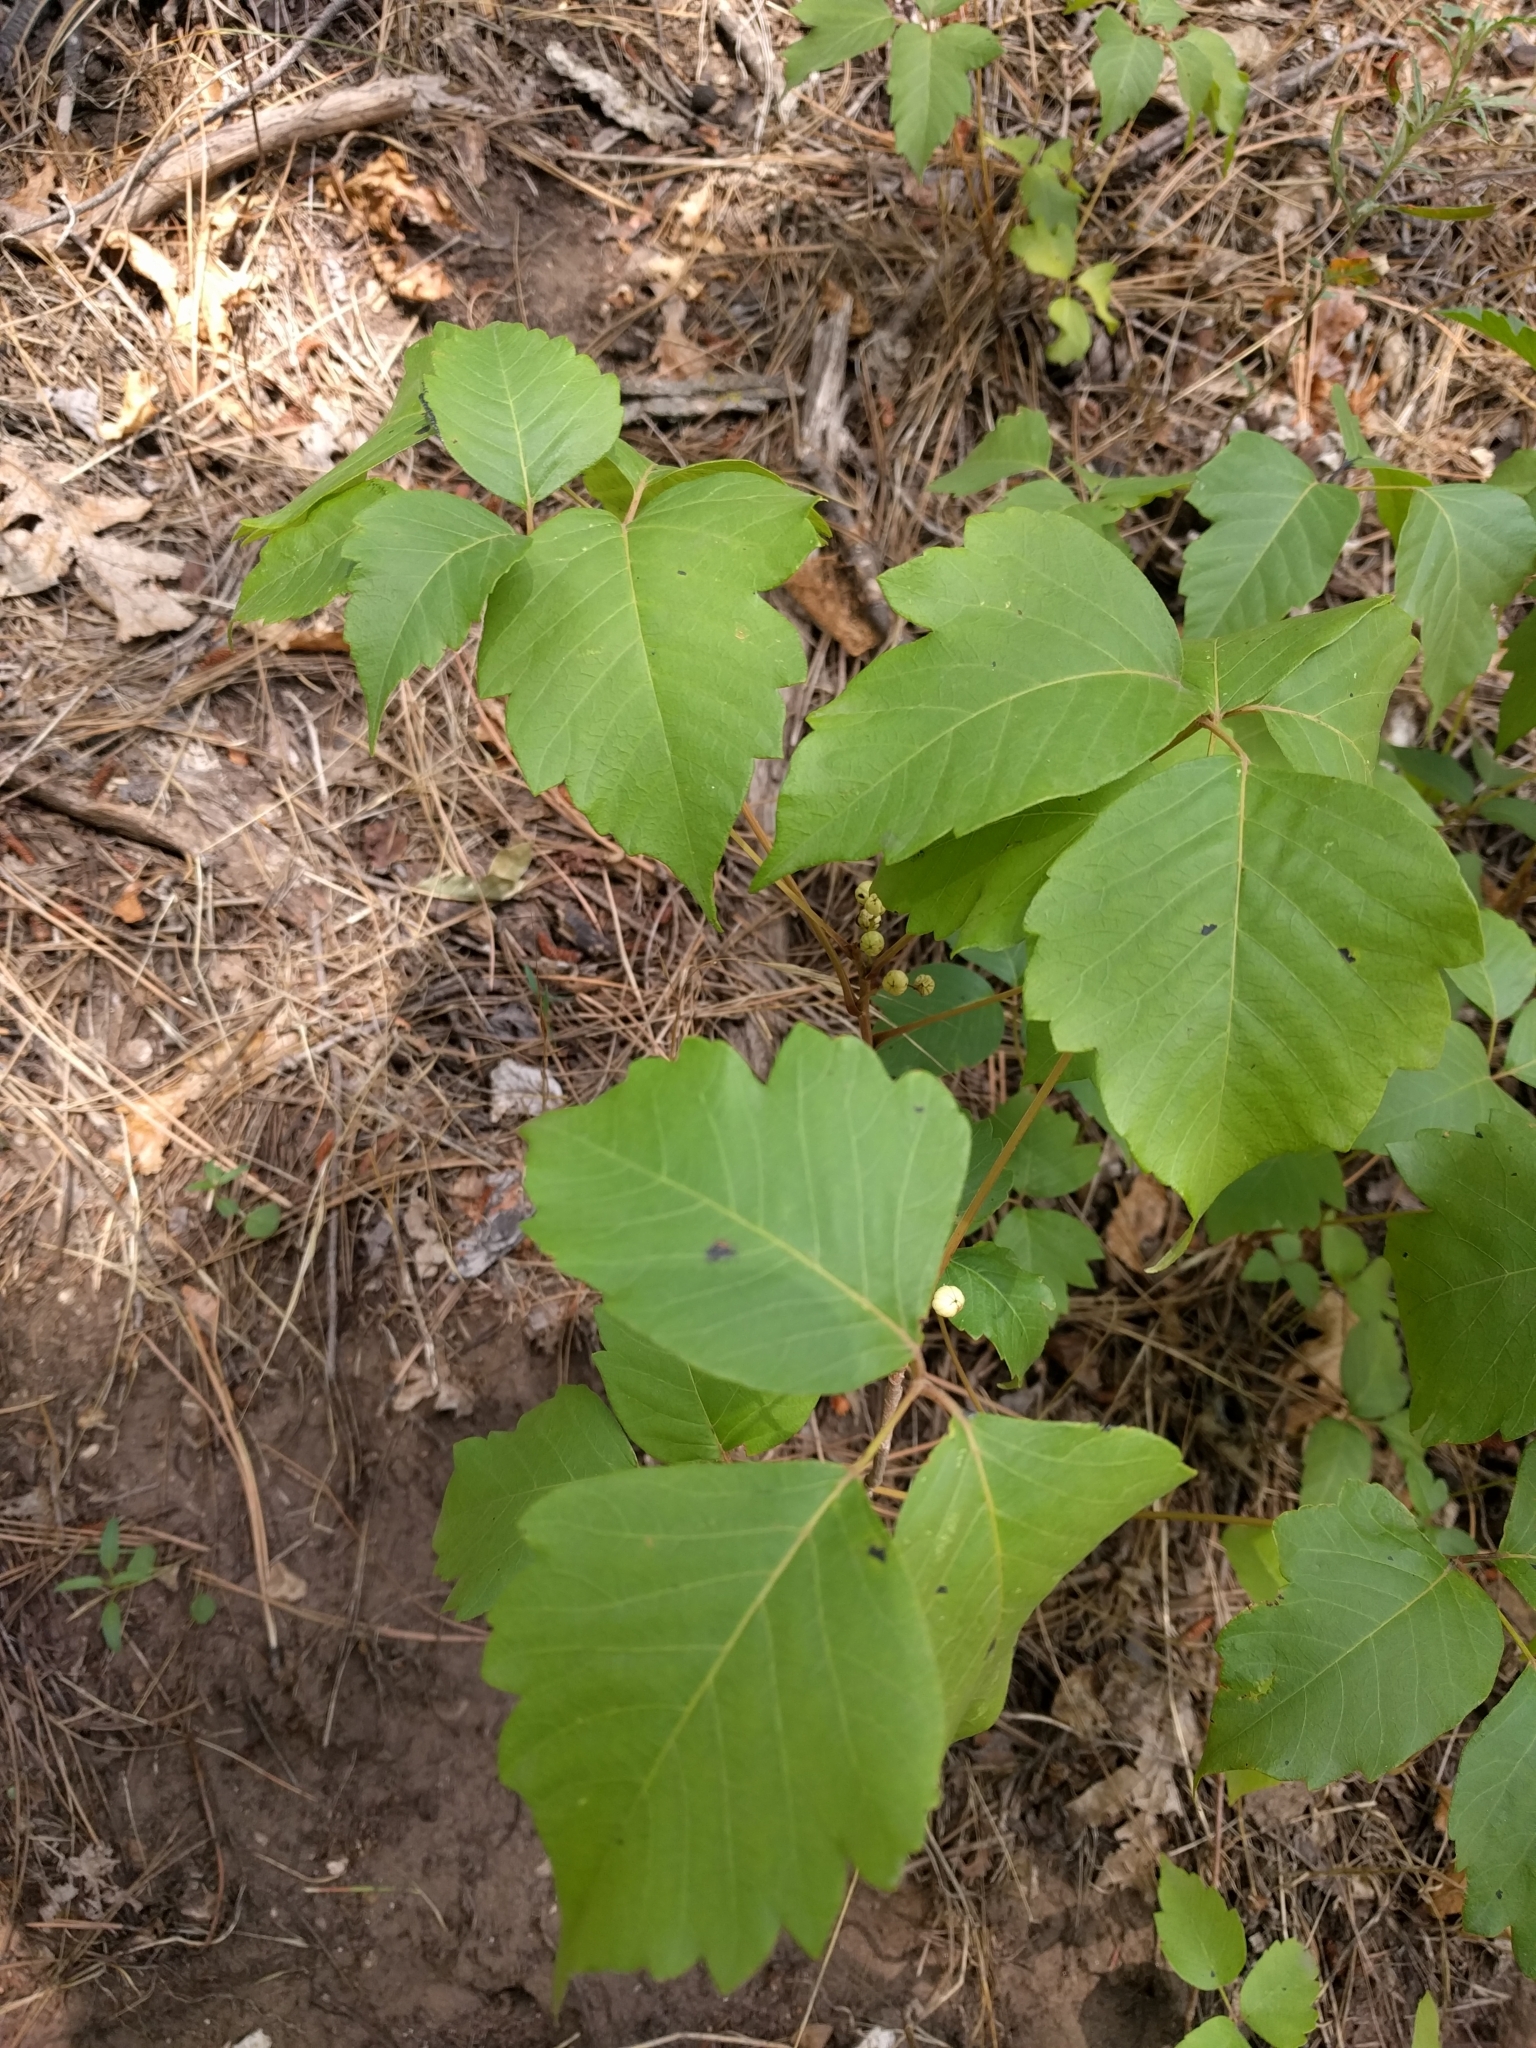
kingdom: Plantae
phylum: Tracheophyta
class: Magnoliopsida
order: Sapindales
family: Anacardiaceae
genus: Toxicodendron
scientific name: Toxicodendron rydbergii
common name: Rydberg's poison-ivy
